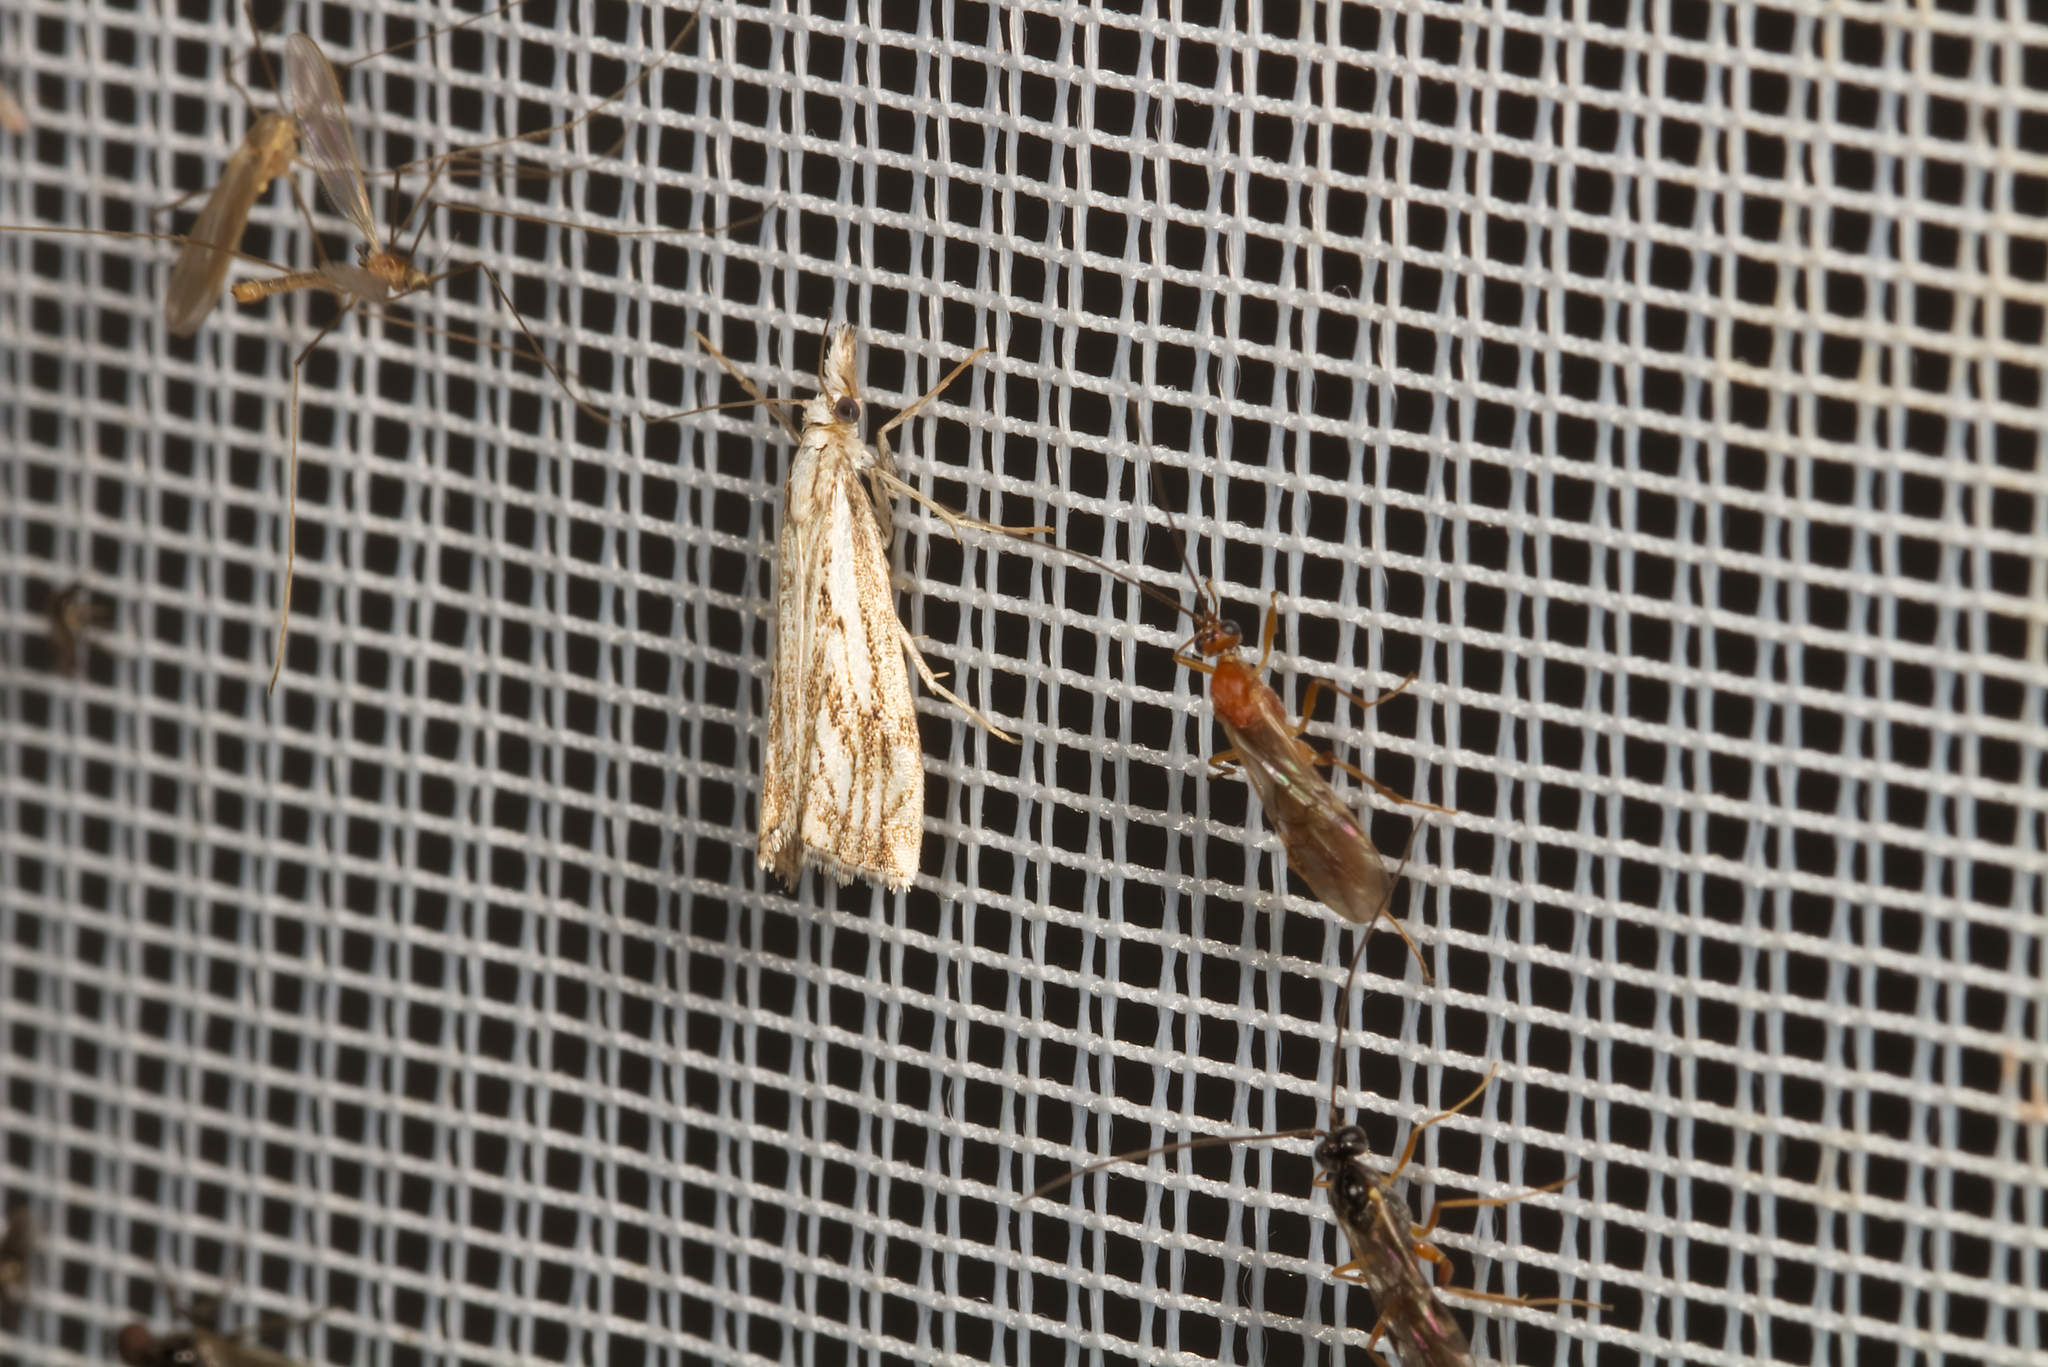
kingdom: Animalia
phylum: Arthropoda
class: Insecta
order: Lepidoptera
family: Crambidae
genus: Catoptria
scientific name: Catoptria falsella
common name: Chequered grass-veneer
